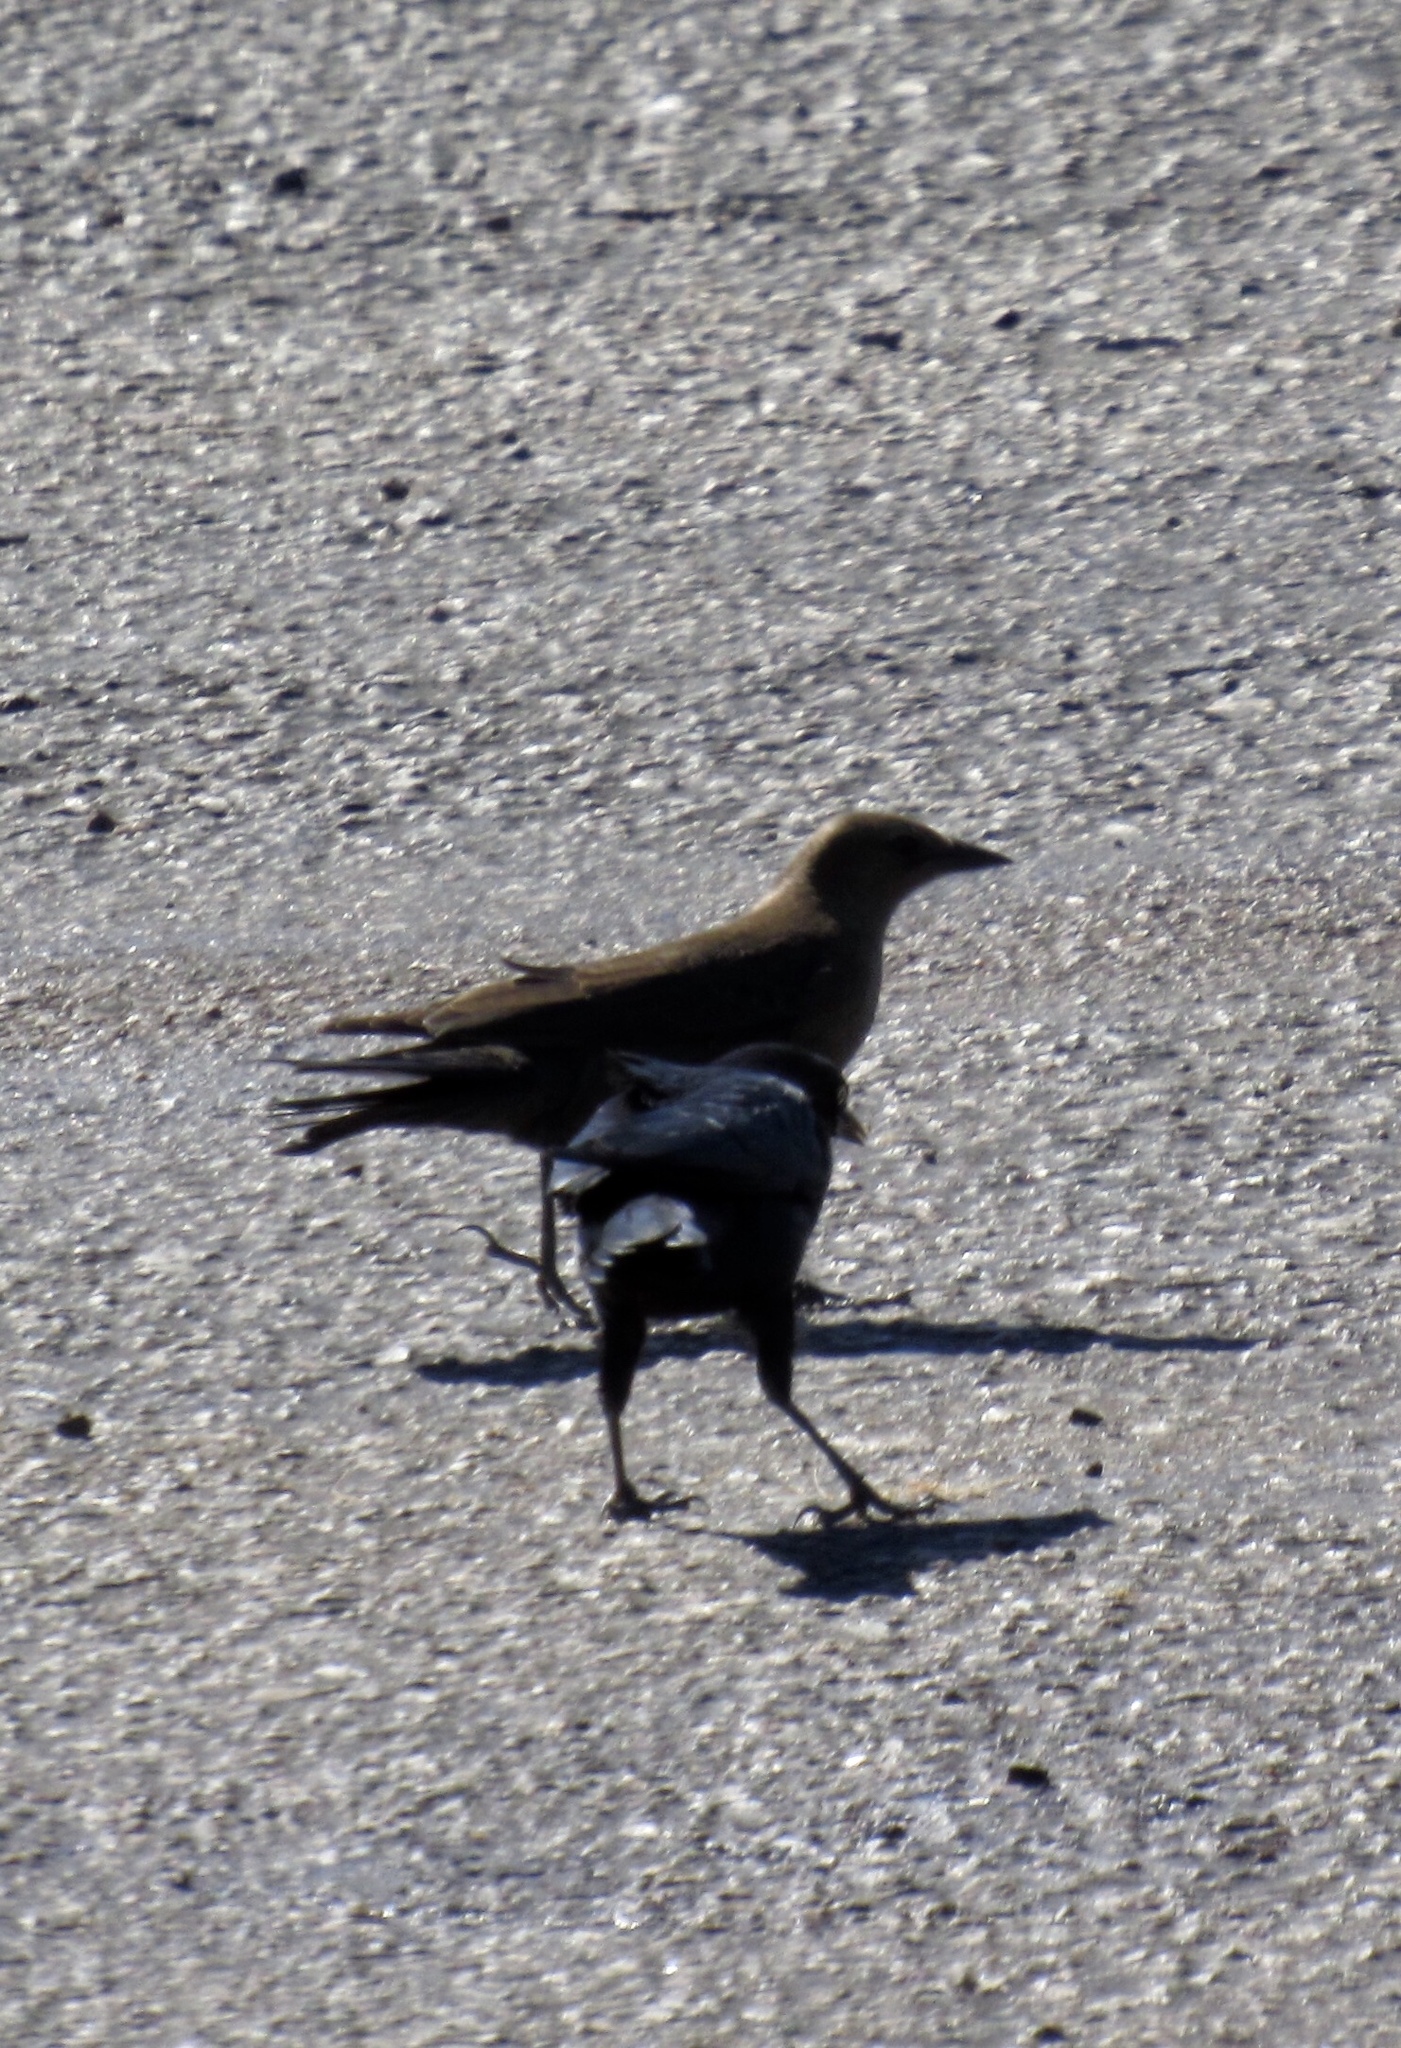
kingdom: Animalia
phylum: Chordata
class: Aves
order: Passeriformes
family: Icteridae
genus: Euphagus
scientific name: Euphagus cyanocephalus
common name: Brewer's blackbird
